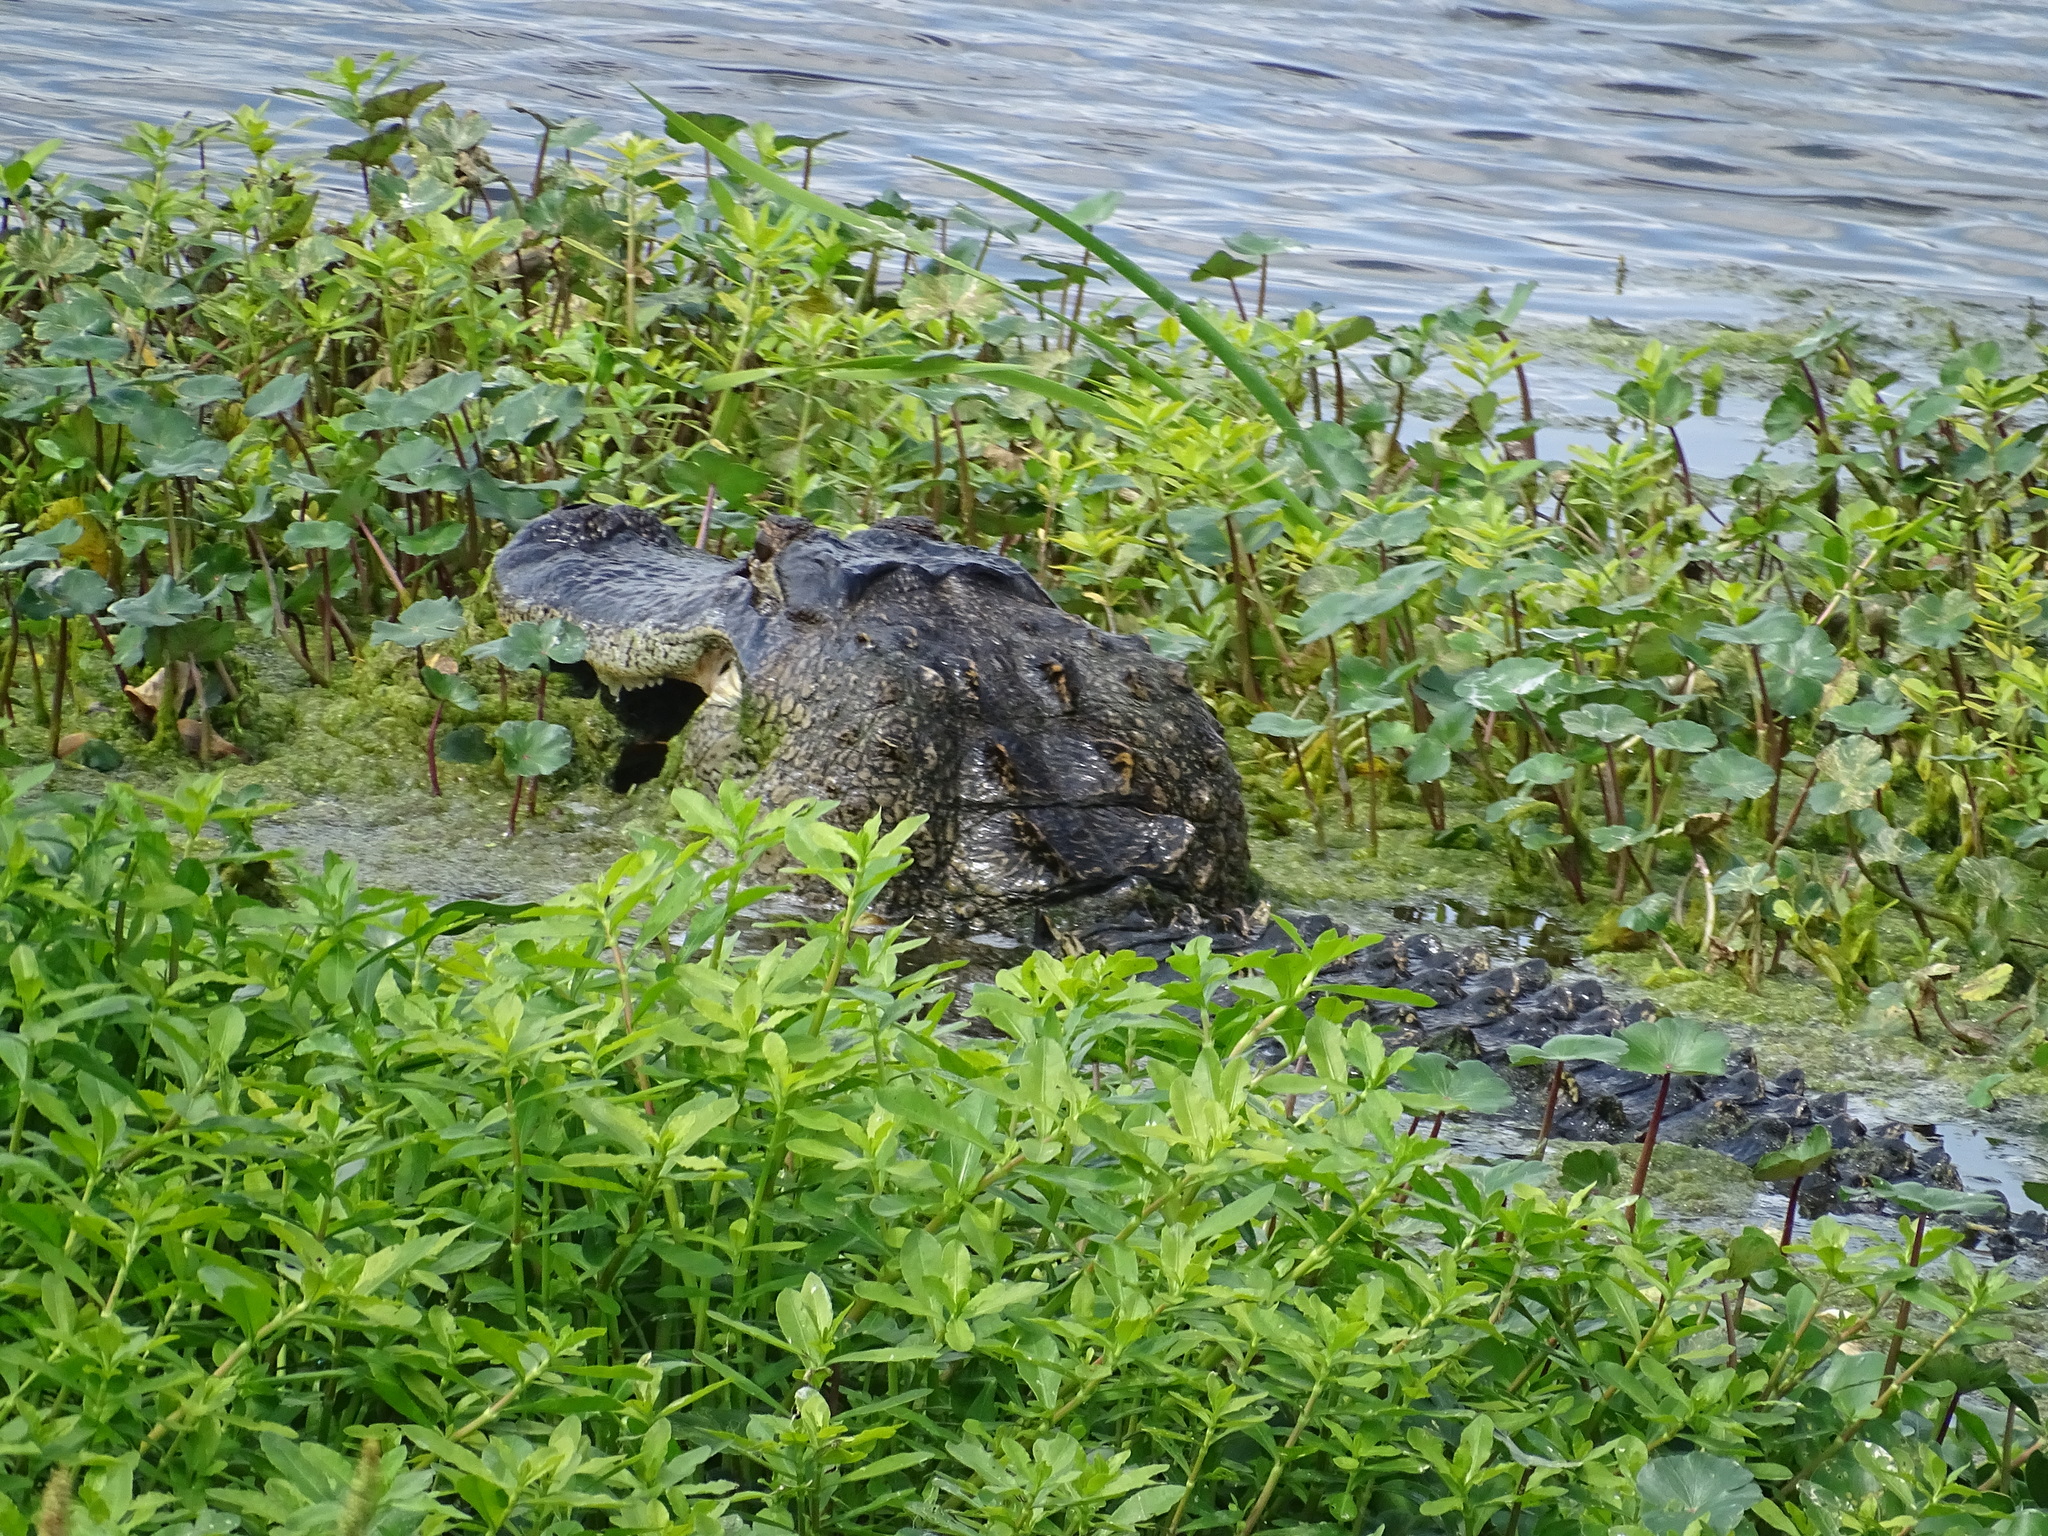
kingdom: Animalia
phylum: Chordata
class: Crocodylia
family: Alligatoridae
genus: Alligator
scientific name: Alligator mississippiensis
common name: American alligator
